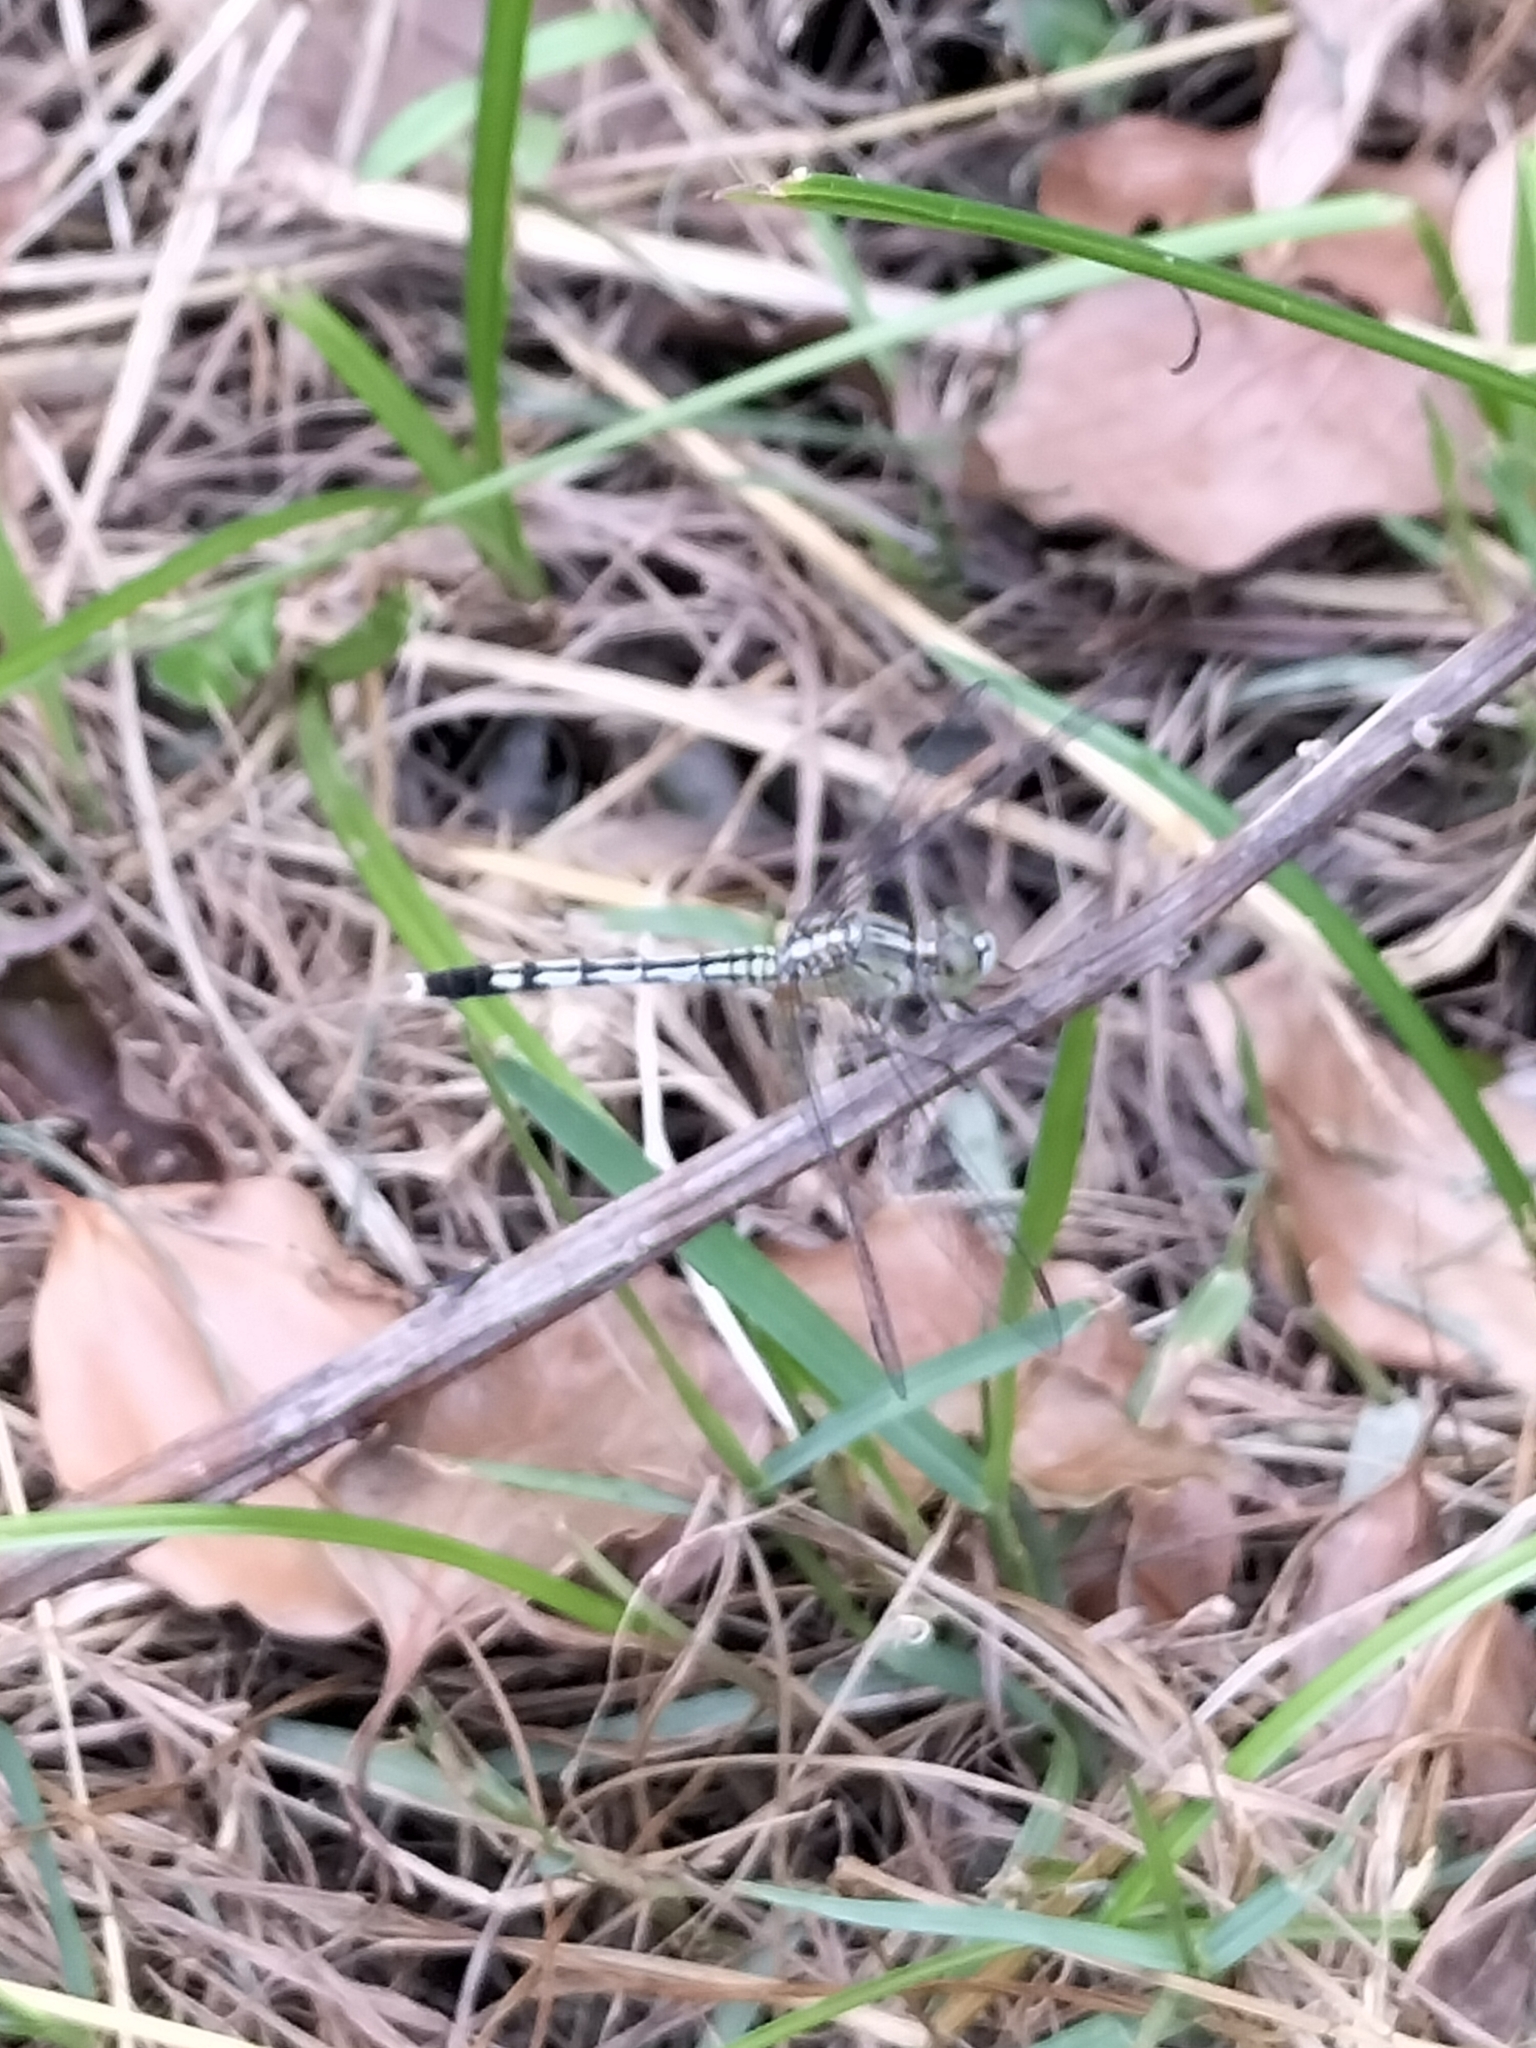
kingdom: Animalia
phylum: Arthropoda
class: Insecta
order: Odonata
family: Libellulidae
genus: Diplacodes
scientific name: Diplacodes trivialis
